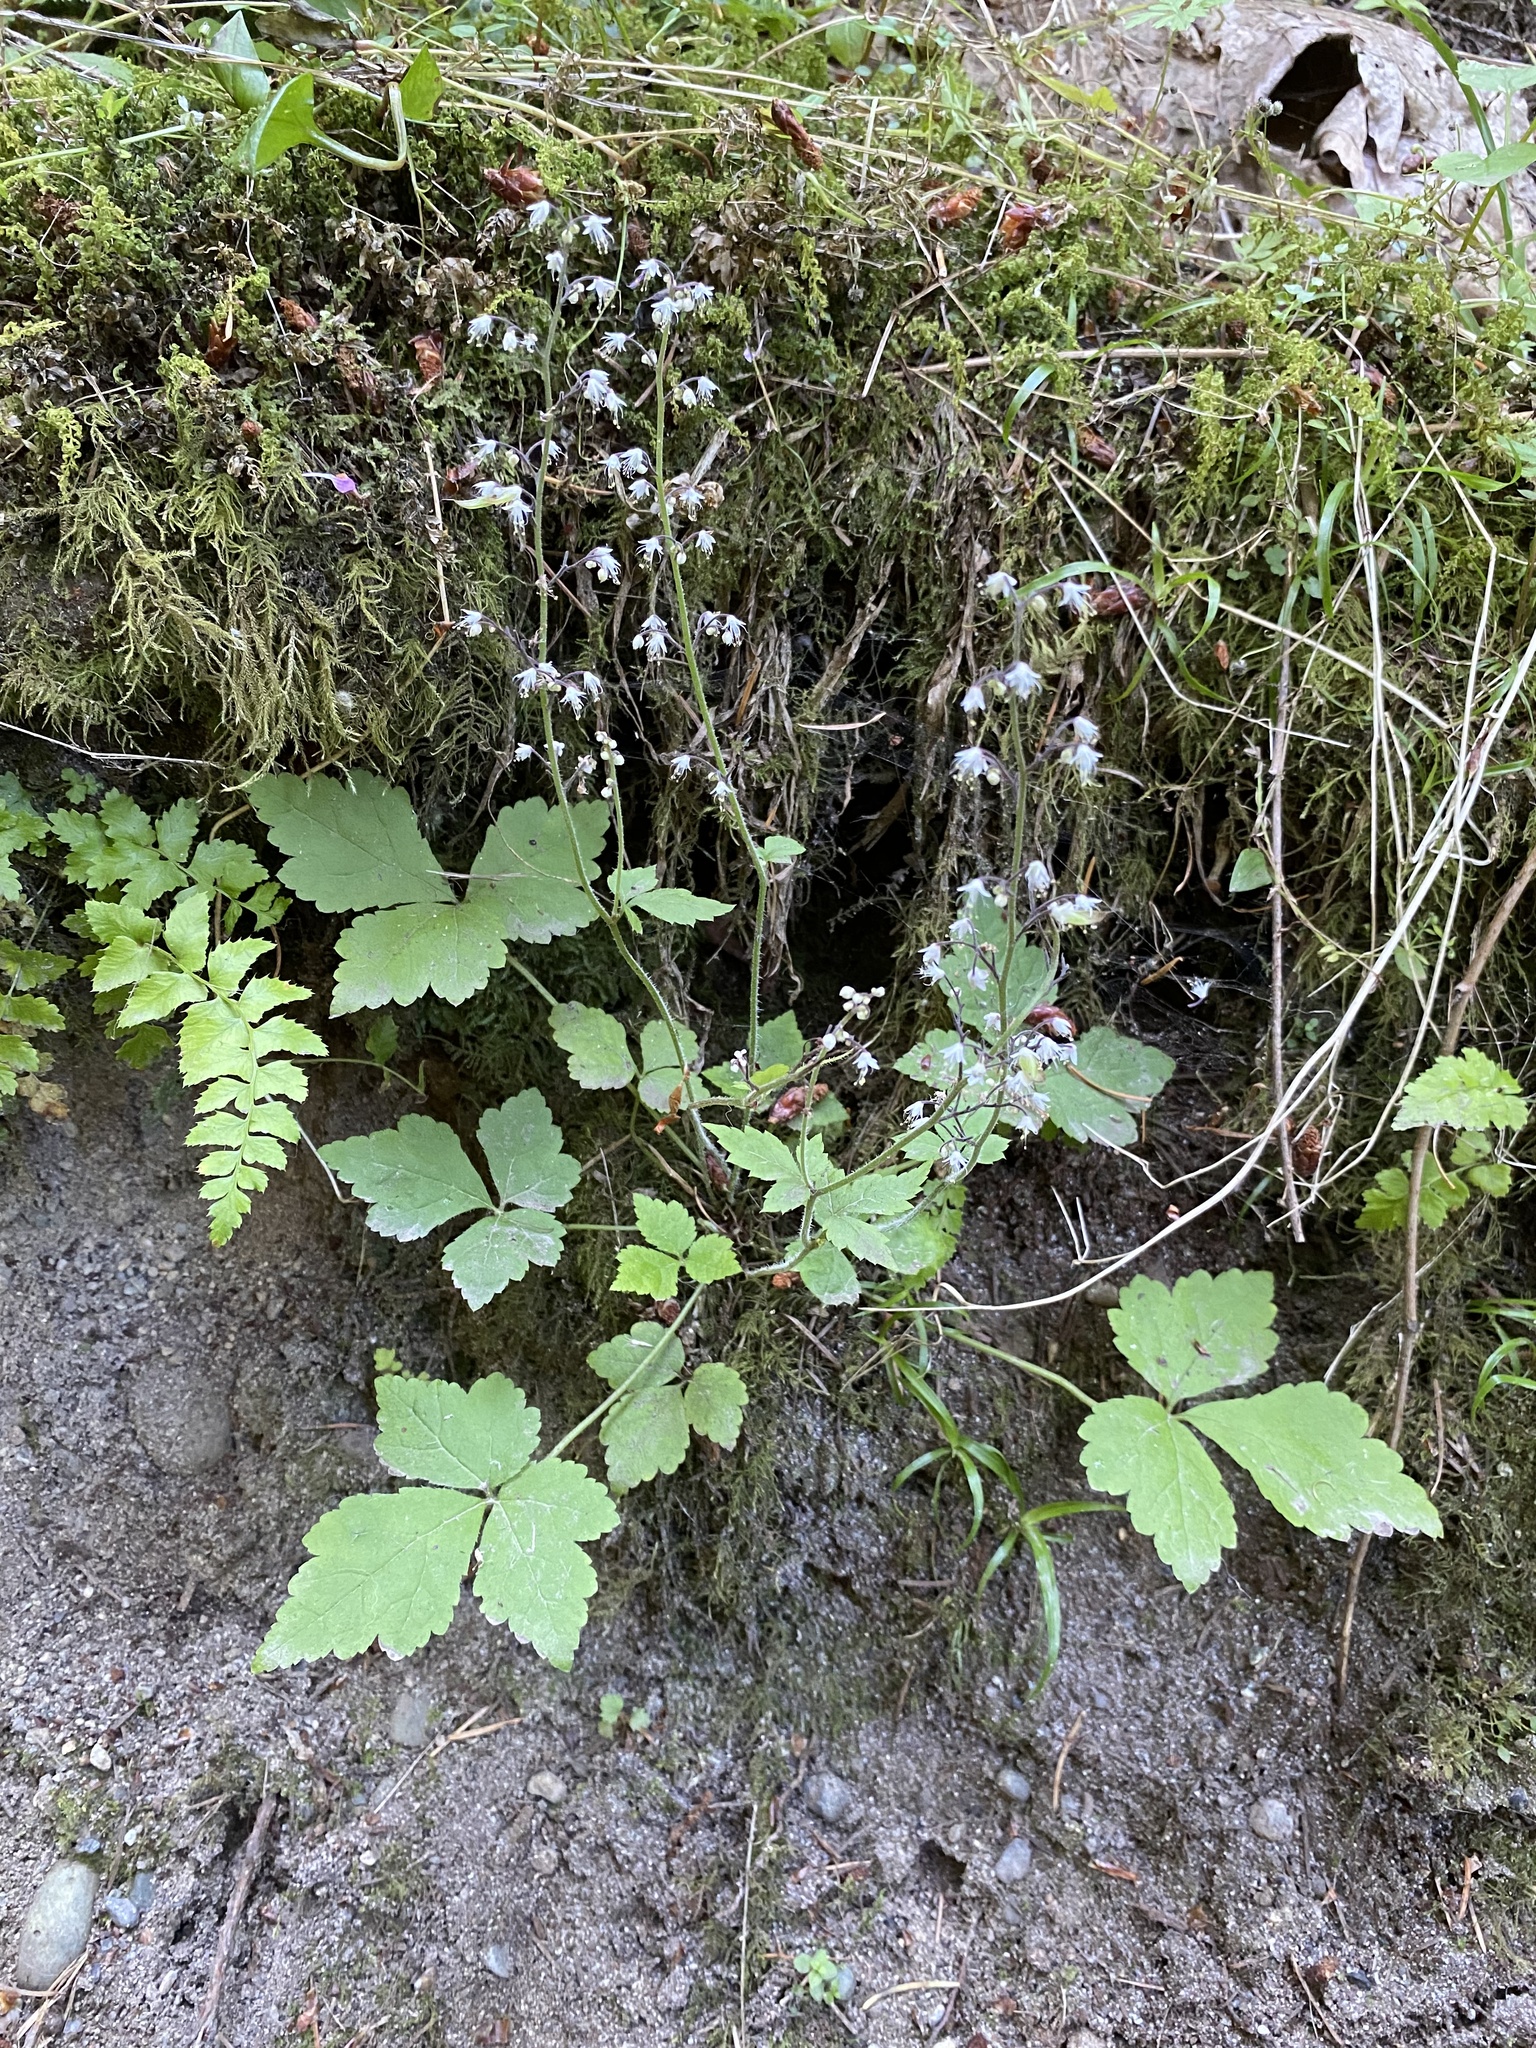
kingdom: Plantae
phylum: Tracheophyta
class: Magnoliopsida
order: Saxifragales
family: Saxifragaceae
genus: Tiarella
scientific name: Tiarella trifoliata
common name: Sugar-scoop
